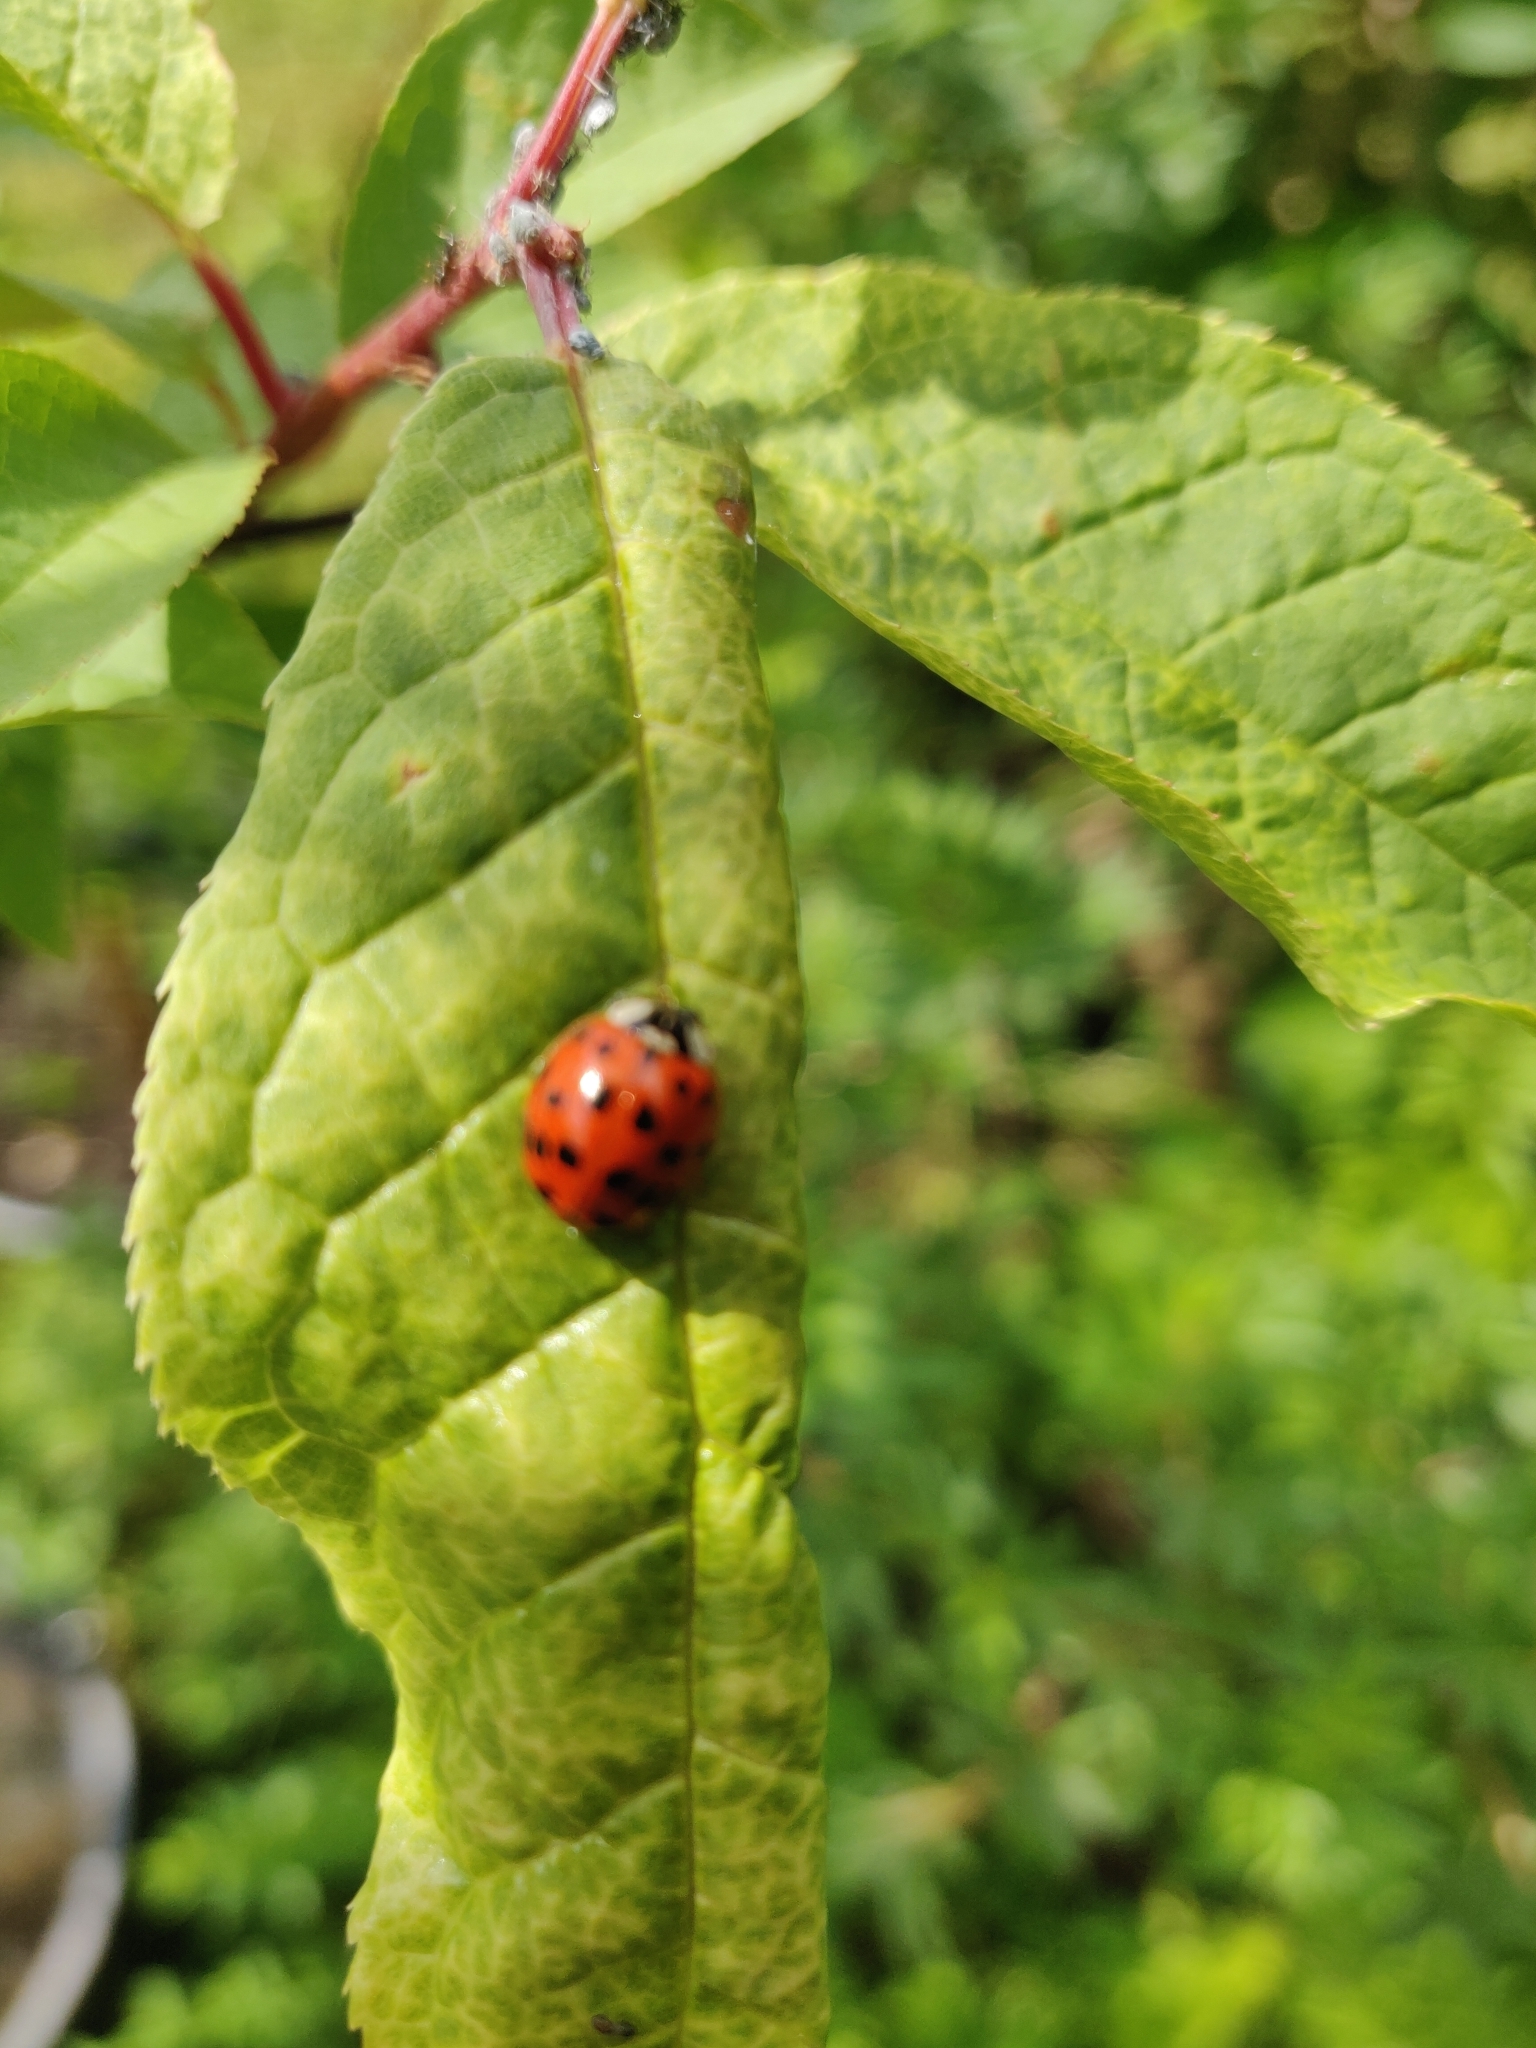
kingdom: Animalia
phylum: Arthropoda
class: Insecta
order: Coleoptera
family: Coccinellidae
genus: Harmonia
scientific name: Harmonia axyridis
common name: Harlequin ladybird
